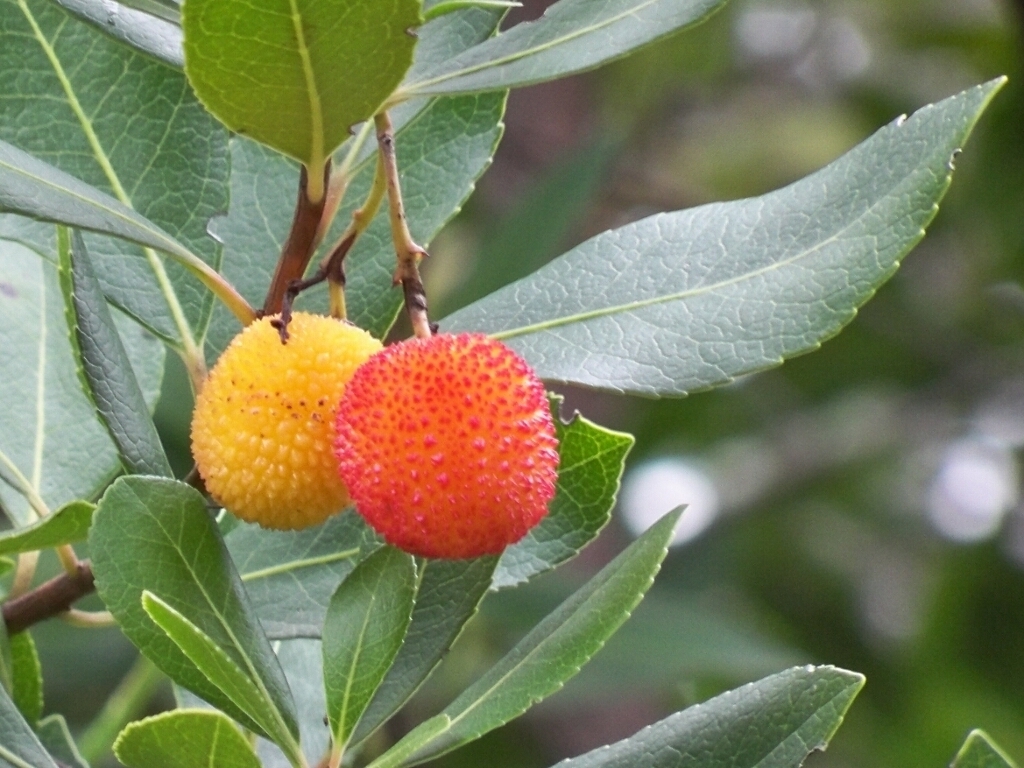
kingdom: Plantae
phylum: Tracheophyta
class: Magnoliopsida
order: Ericales
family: Ericaceae
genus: Arbutus
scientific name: Arbutus unedo
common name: Strawberry-tree
